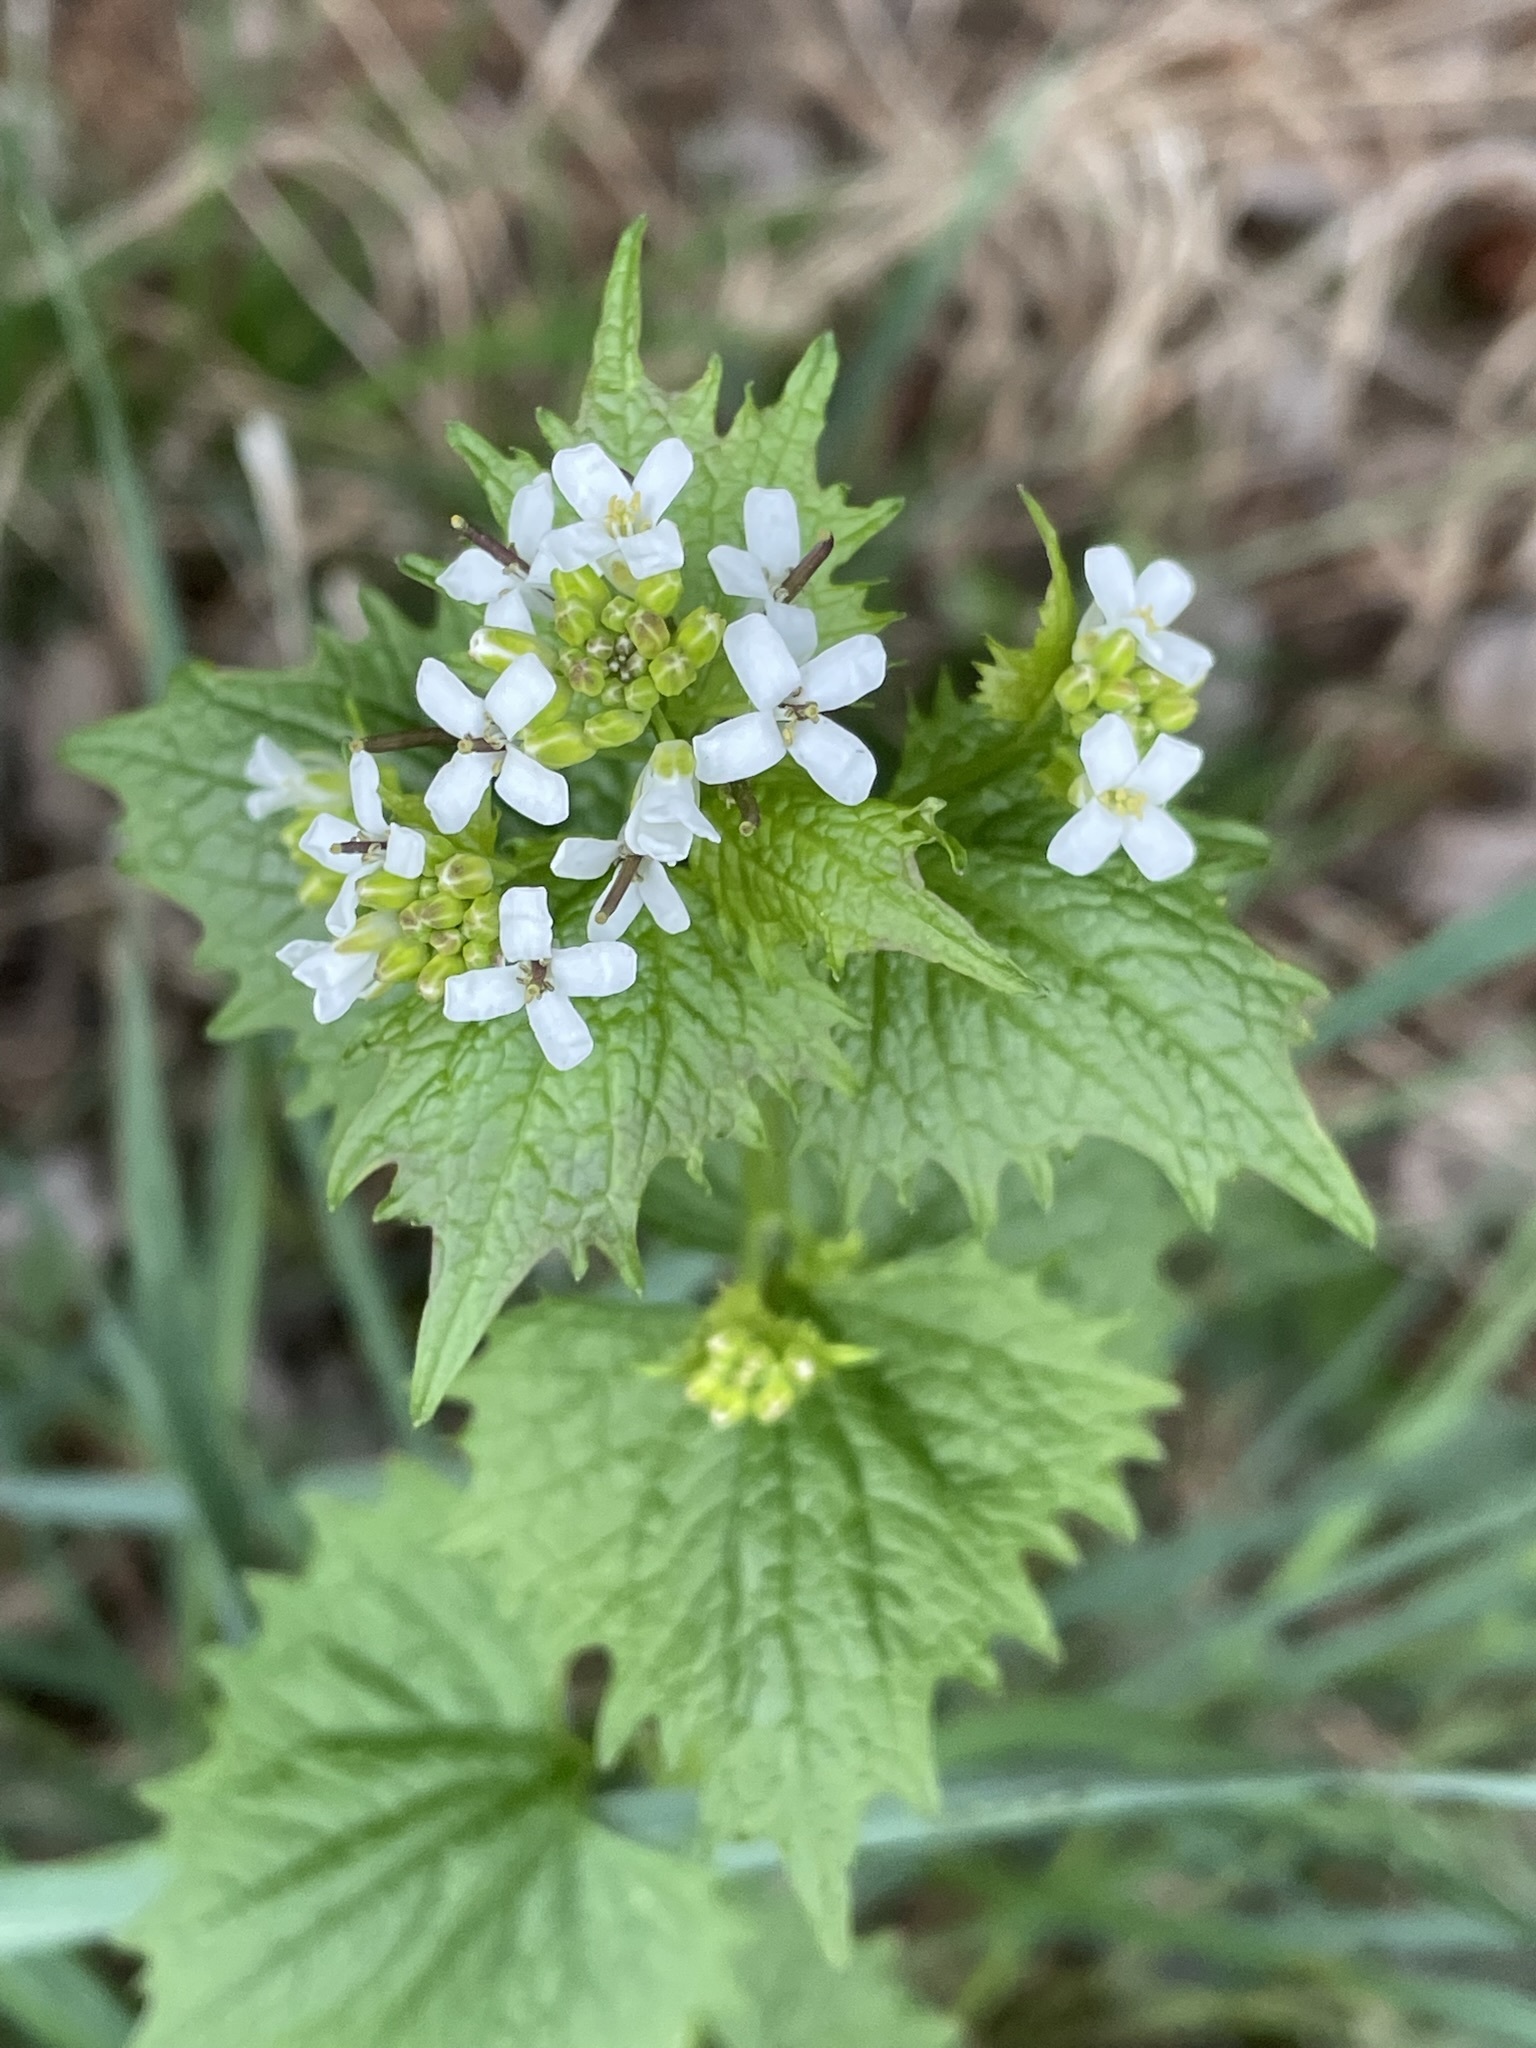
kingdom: Plantae
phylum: Tracheophyta
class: Magnoliopsida
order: Brassicales
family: Brassicaceae
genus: Alliaria
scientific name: Alliaria petiolata
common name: Garlic mustard
